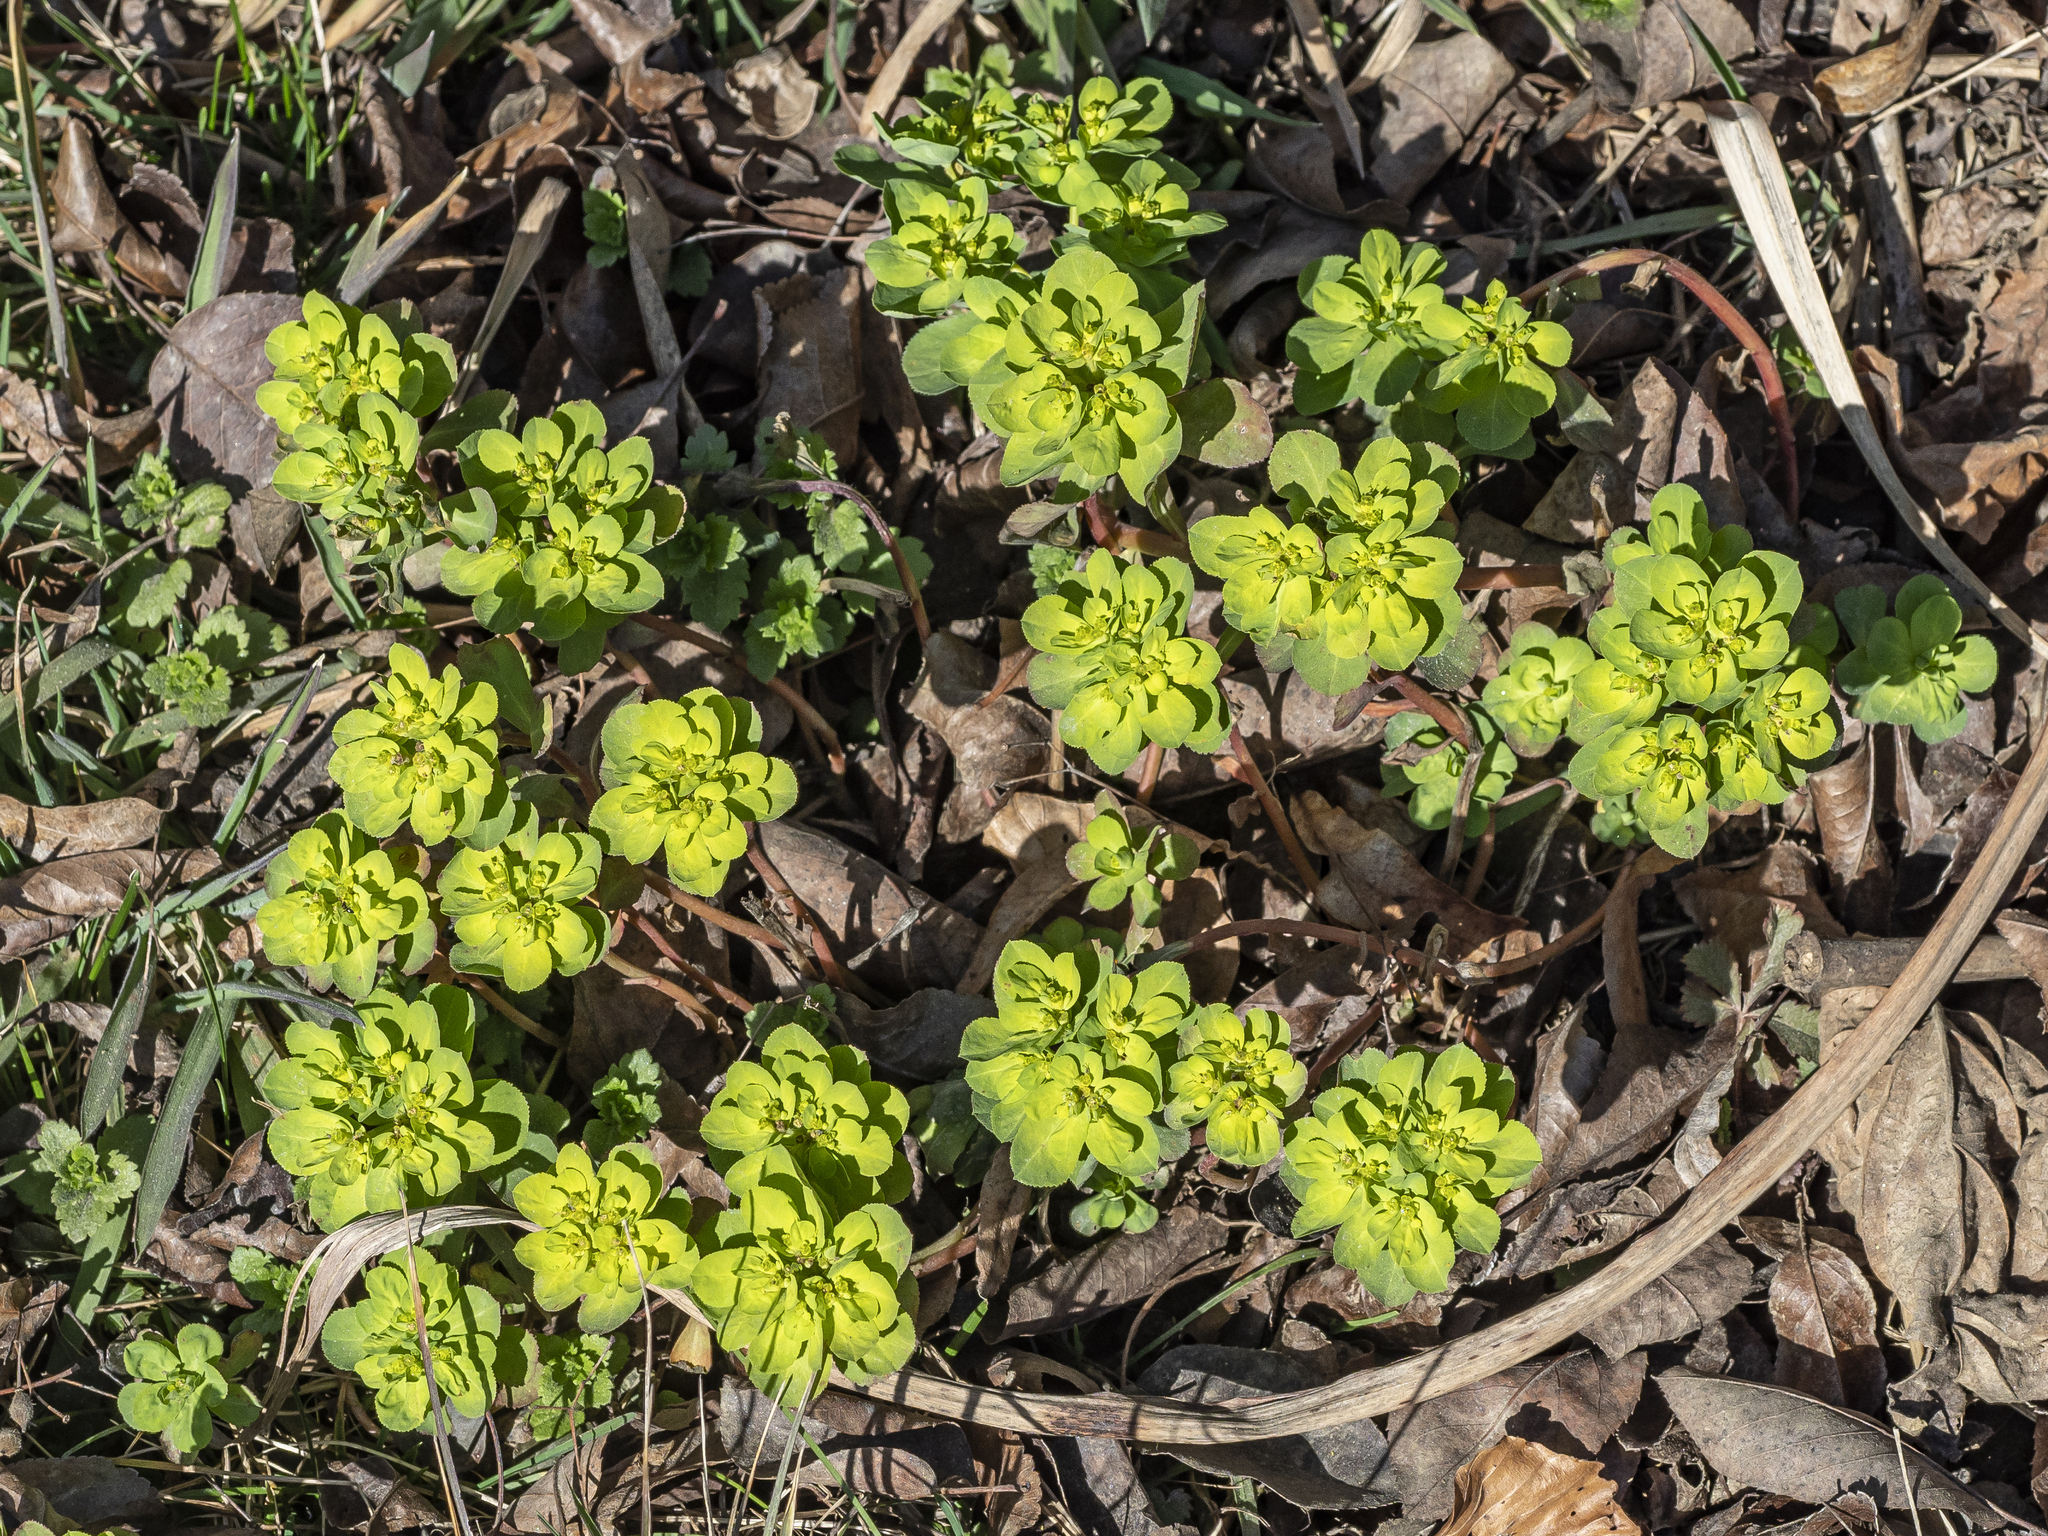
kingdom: Plantae
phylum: Tracheophyta
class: Magnoliopsida
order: Malpighiales
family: Euphorbiaceae
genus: Euphorbia
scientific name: Euphorbia helioscopia
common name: Sun spurge
